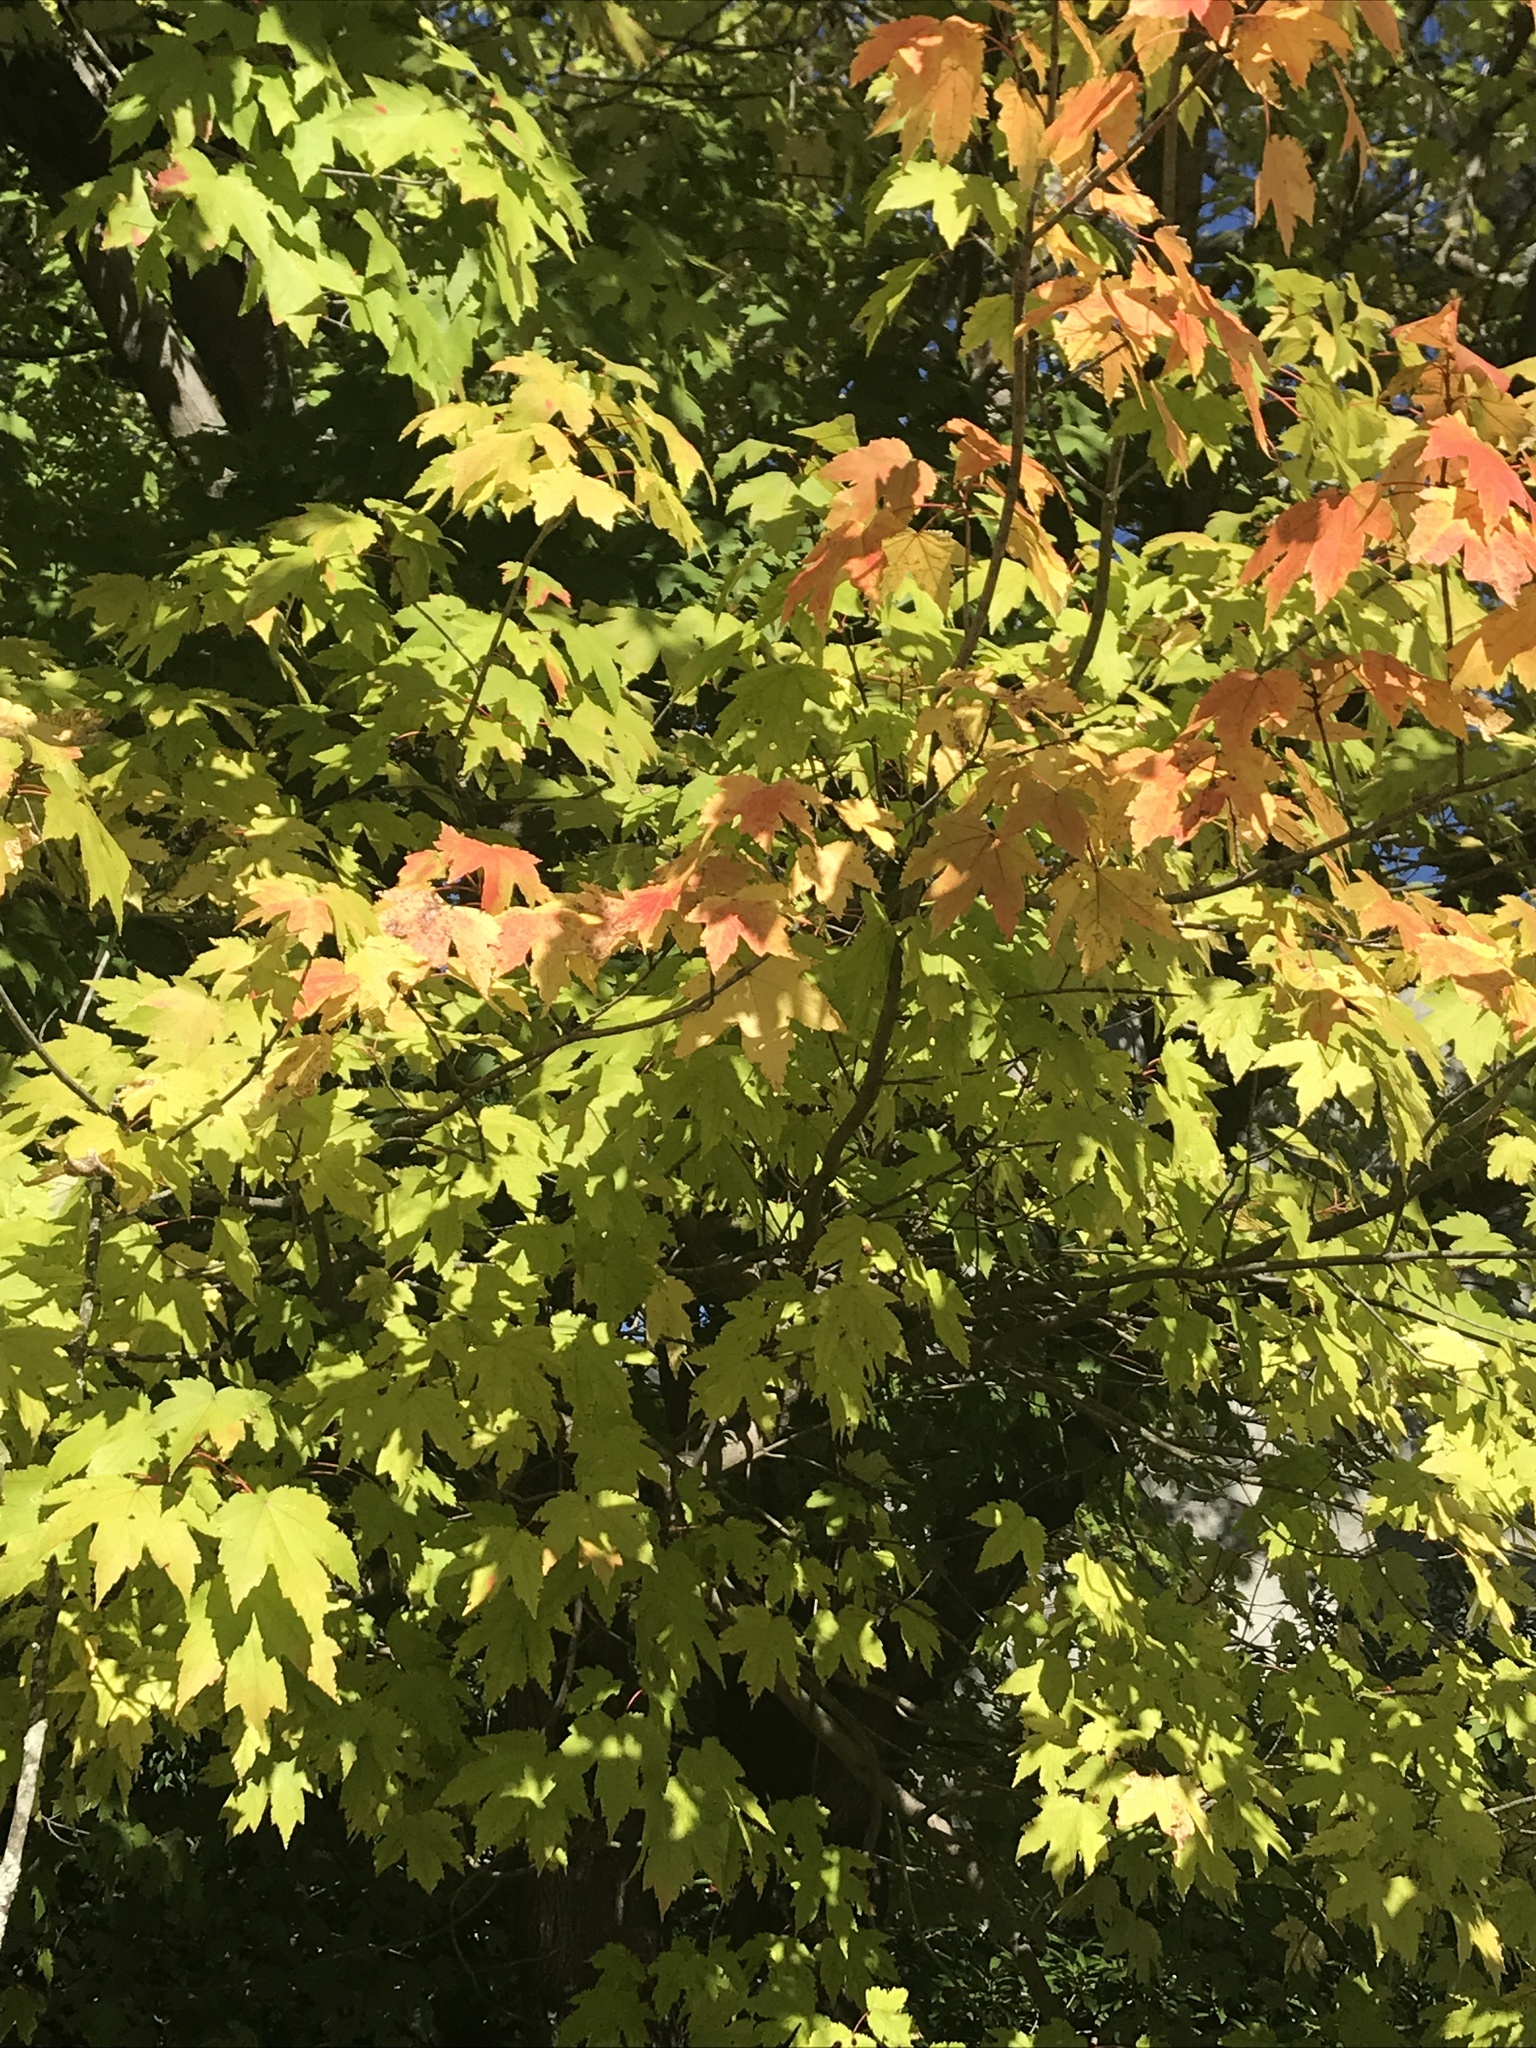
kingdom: Plantae
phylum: Tracheophyta
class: Magnoliopsida
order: Sapindales
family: Sapindaceae
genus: Acer
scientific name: Acer rubrum
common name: Red maple
